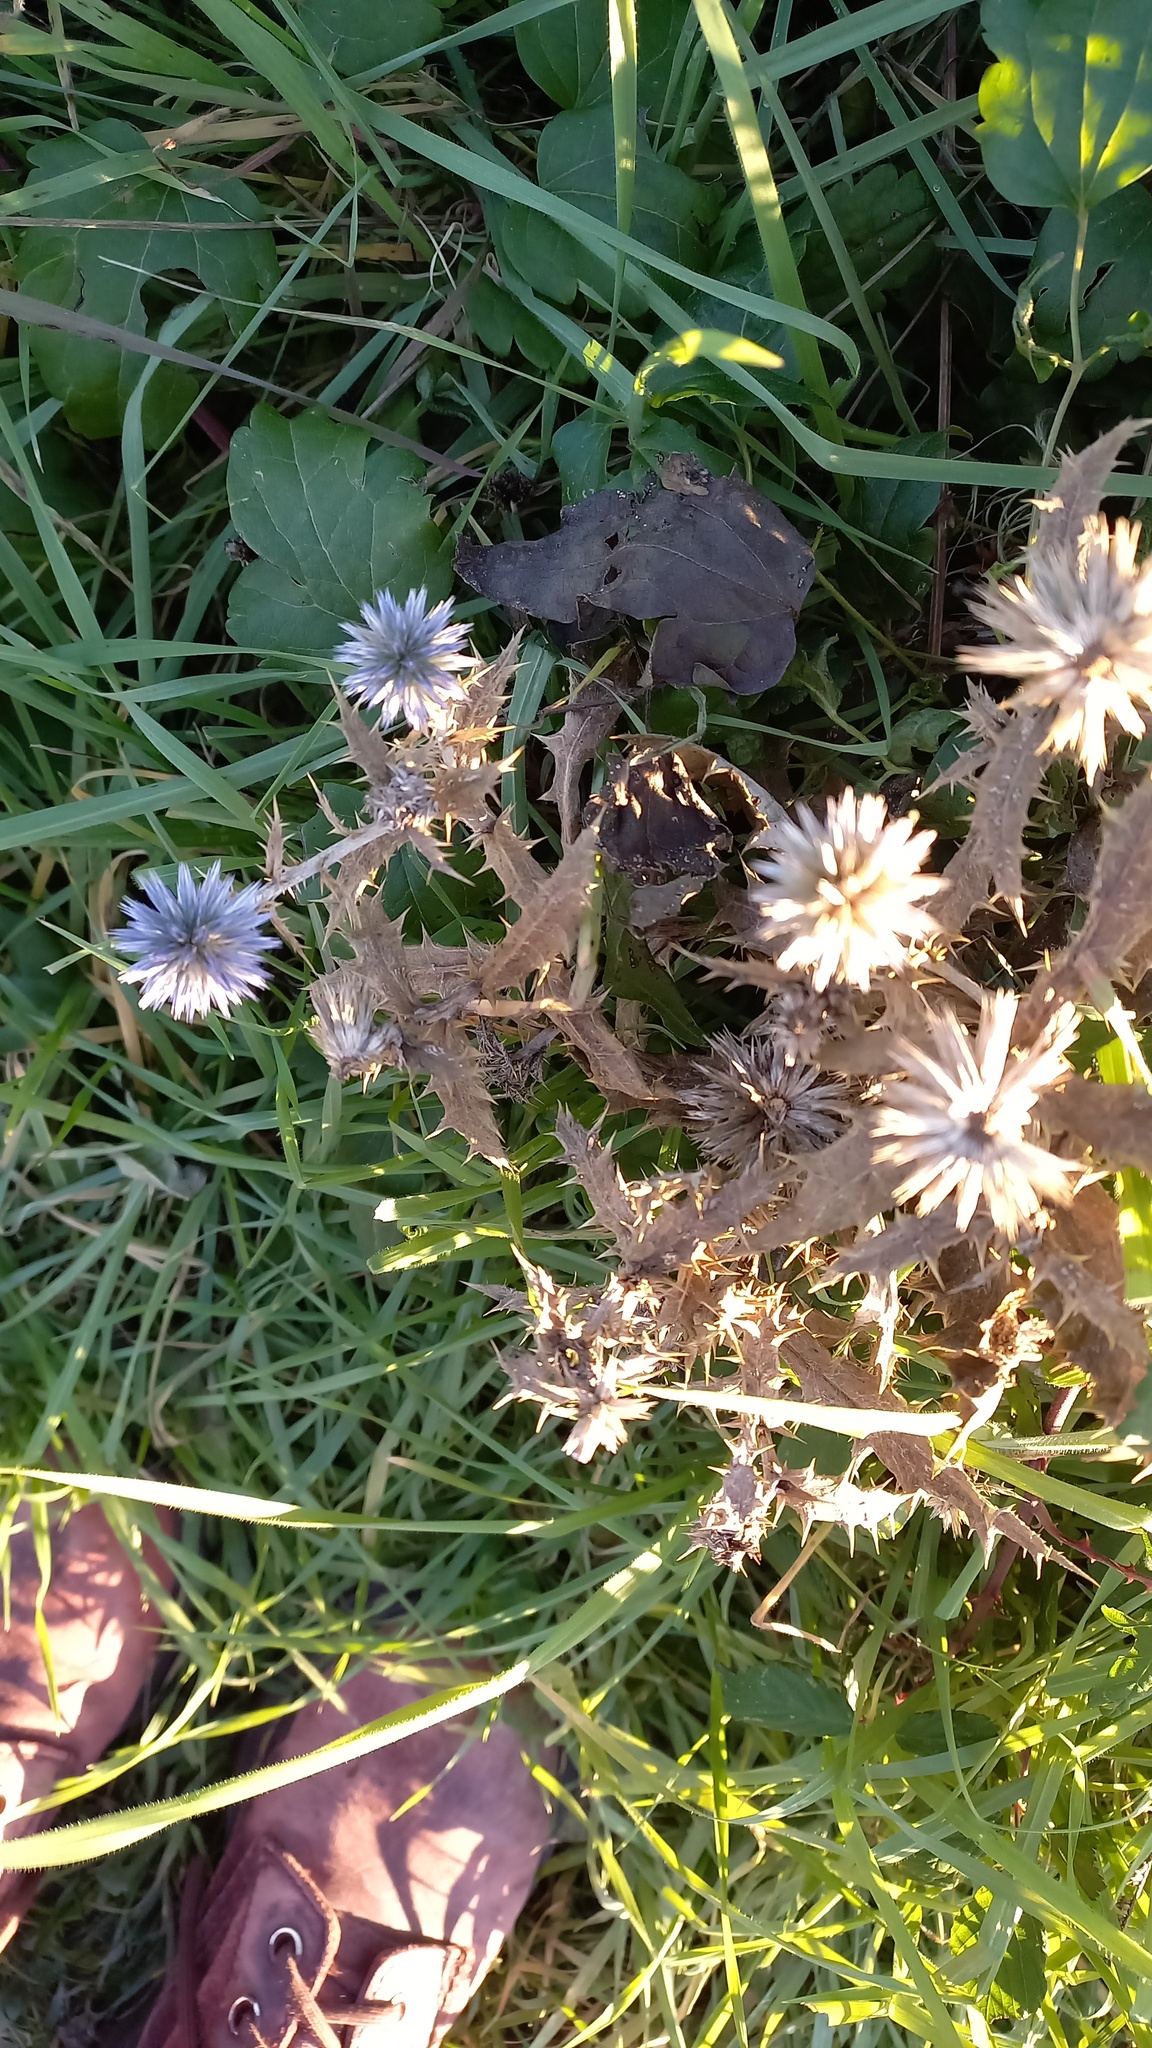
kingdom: Plantae
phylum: Tracheophyta
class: Magnoliopsida
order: Asterales
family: Asteraceae
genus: Echinops
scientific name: Echinops ritro
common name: Globe thistle
